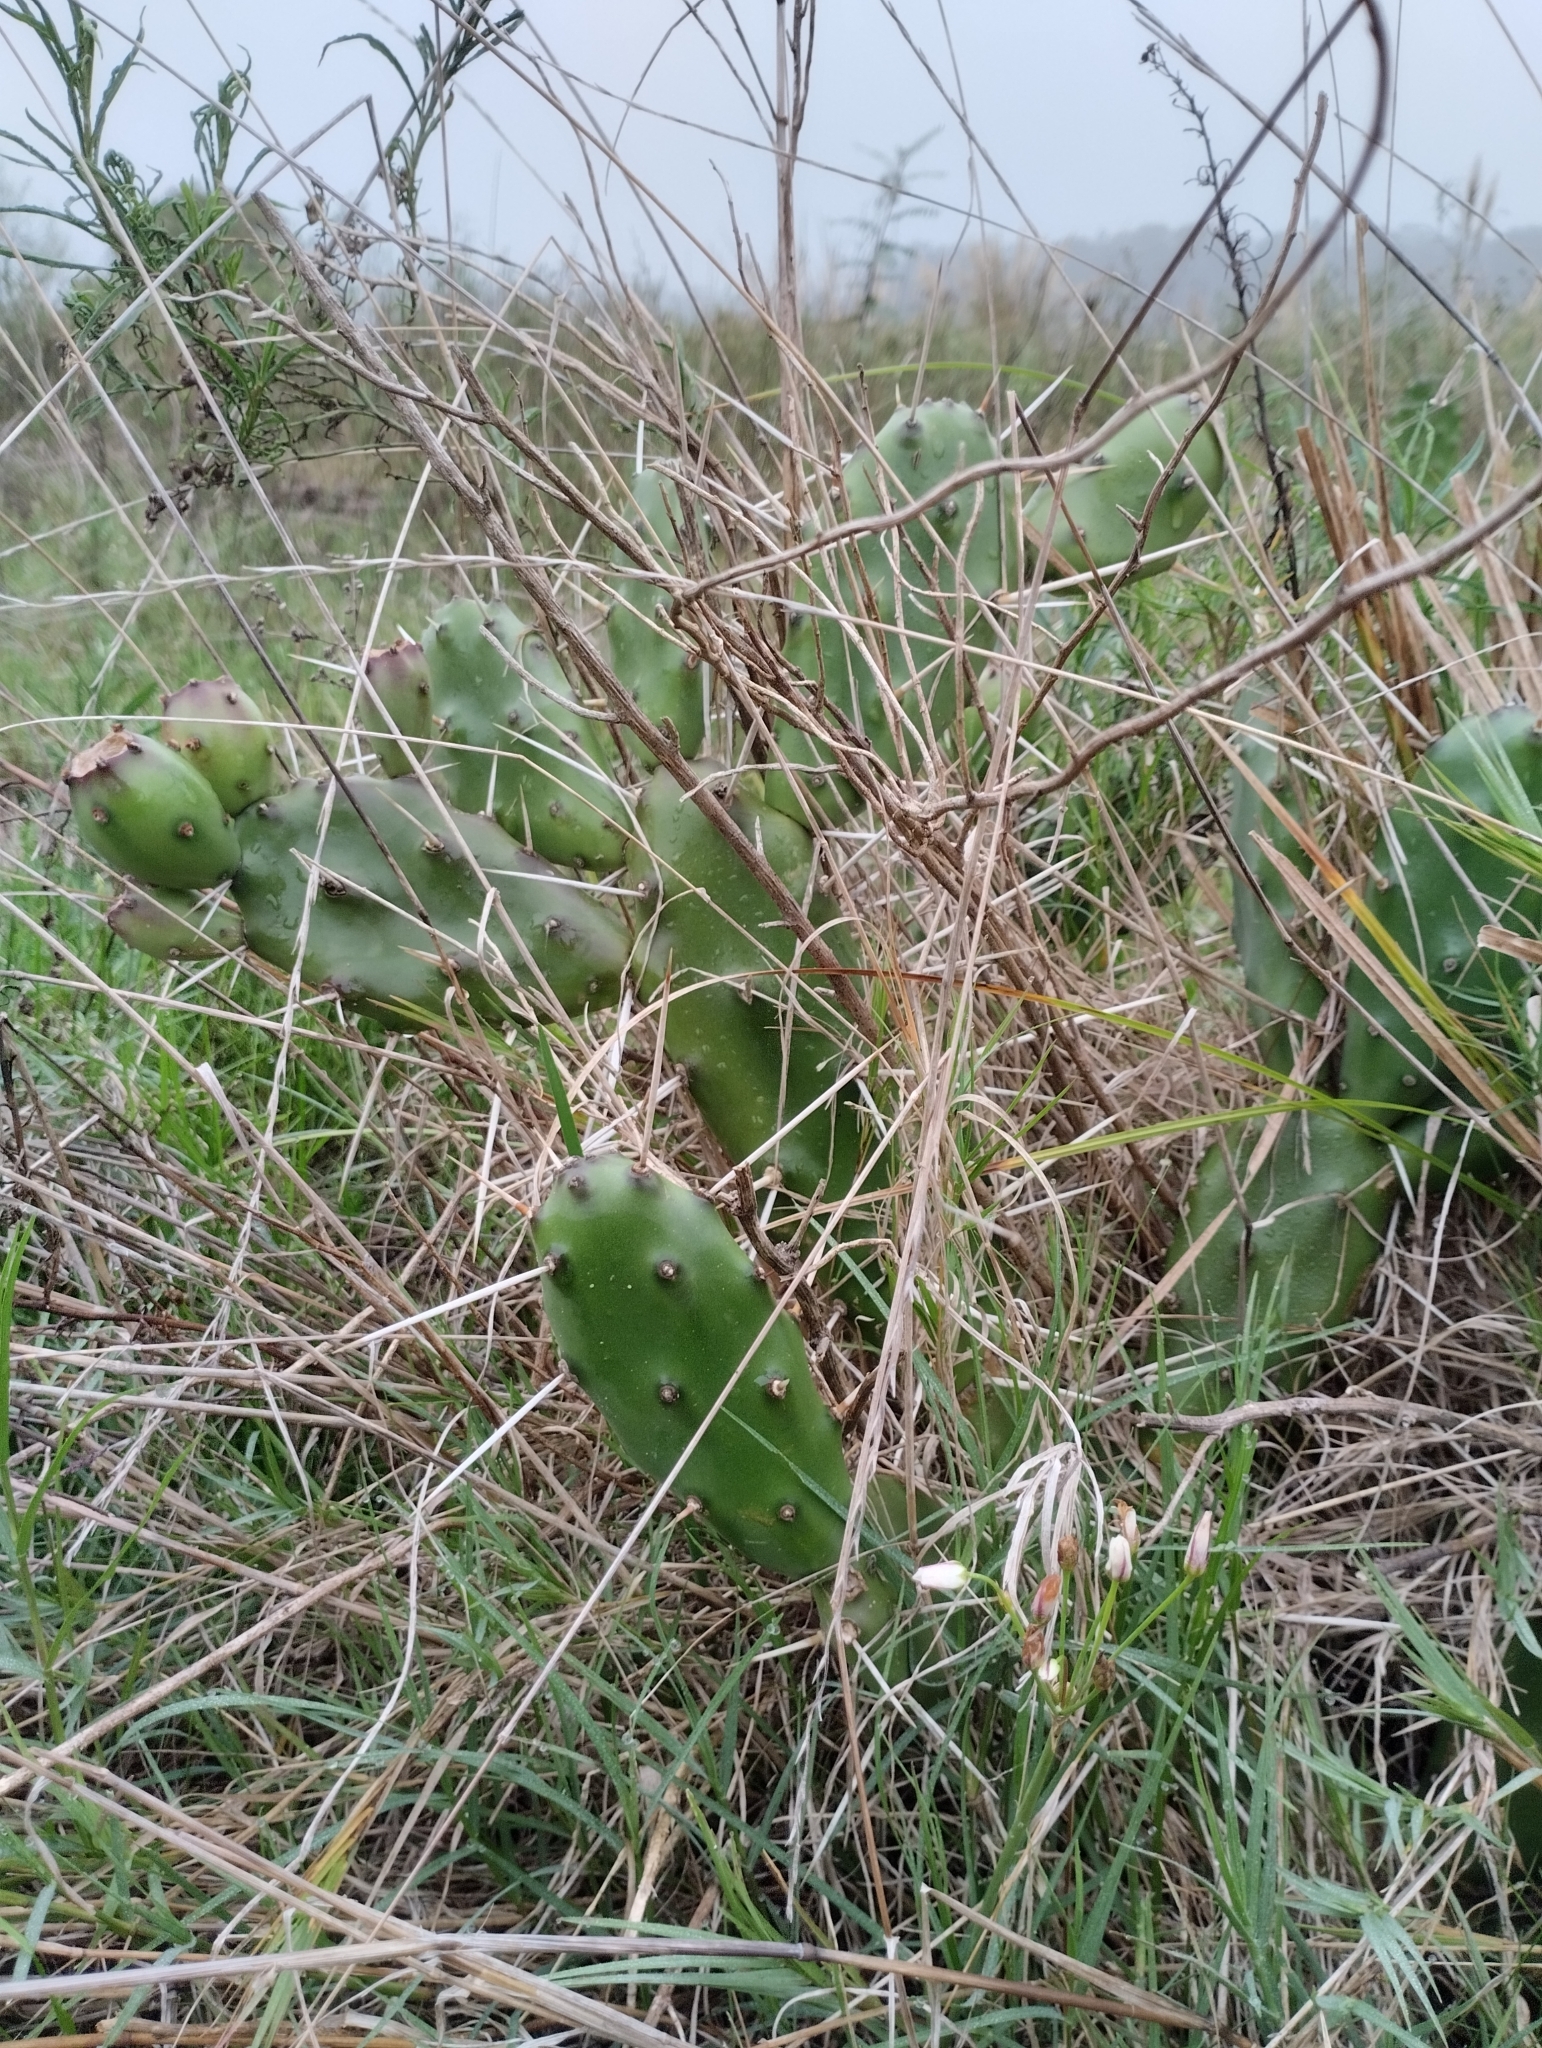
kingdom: Plantae
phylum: Tracheophyta
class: Magnoliopsida
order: Caryophyllales
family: Cactaceae
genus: Opuntia
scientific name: Opuntia elata
